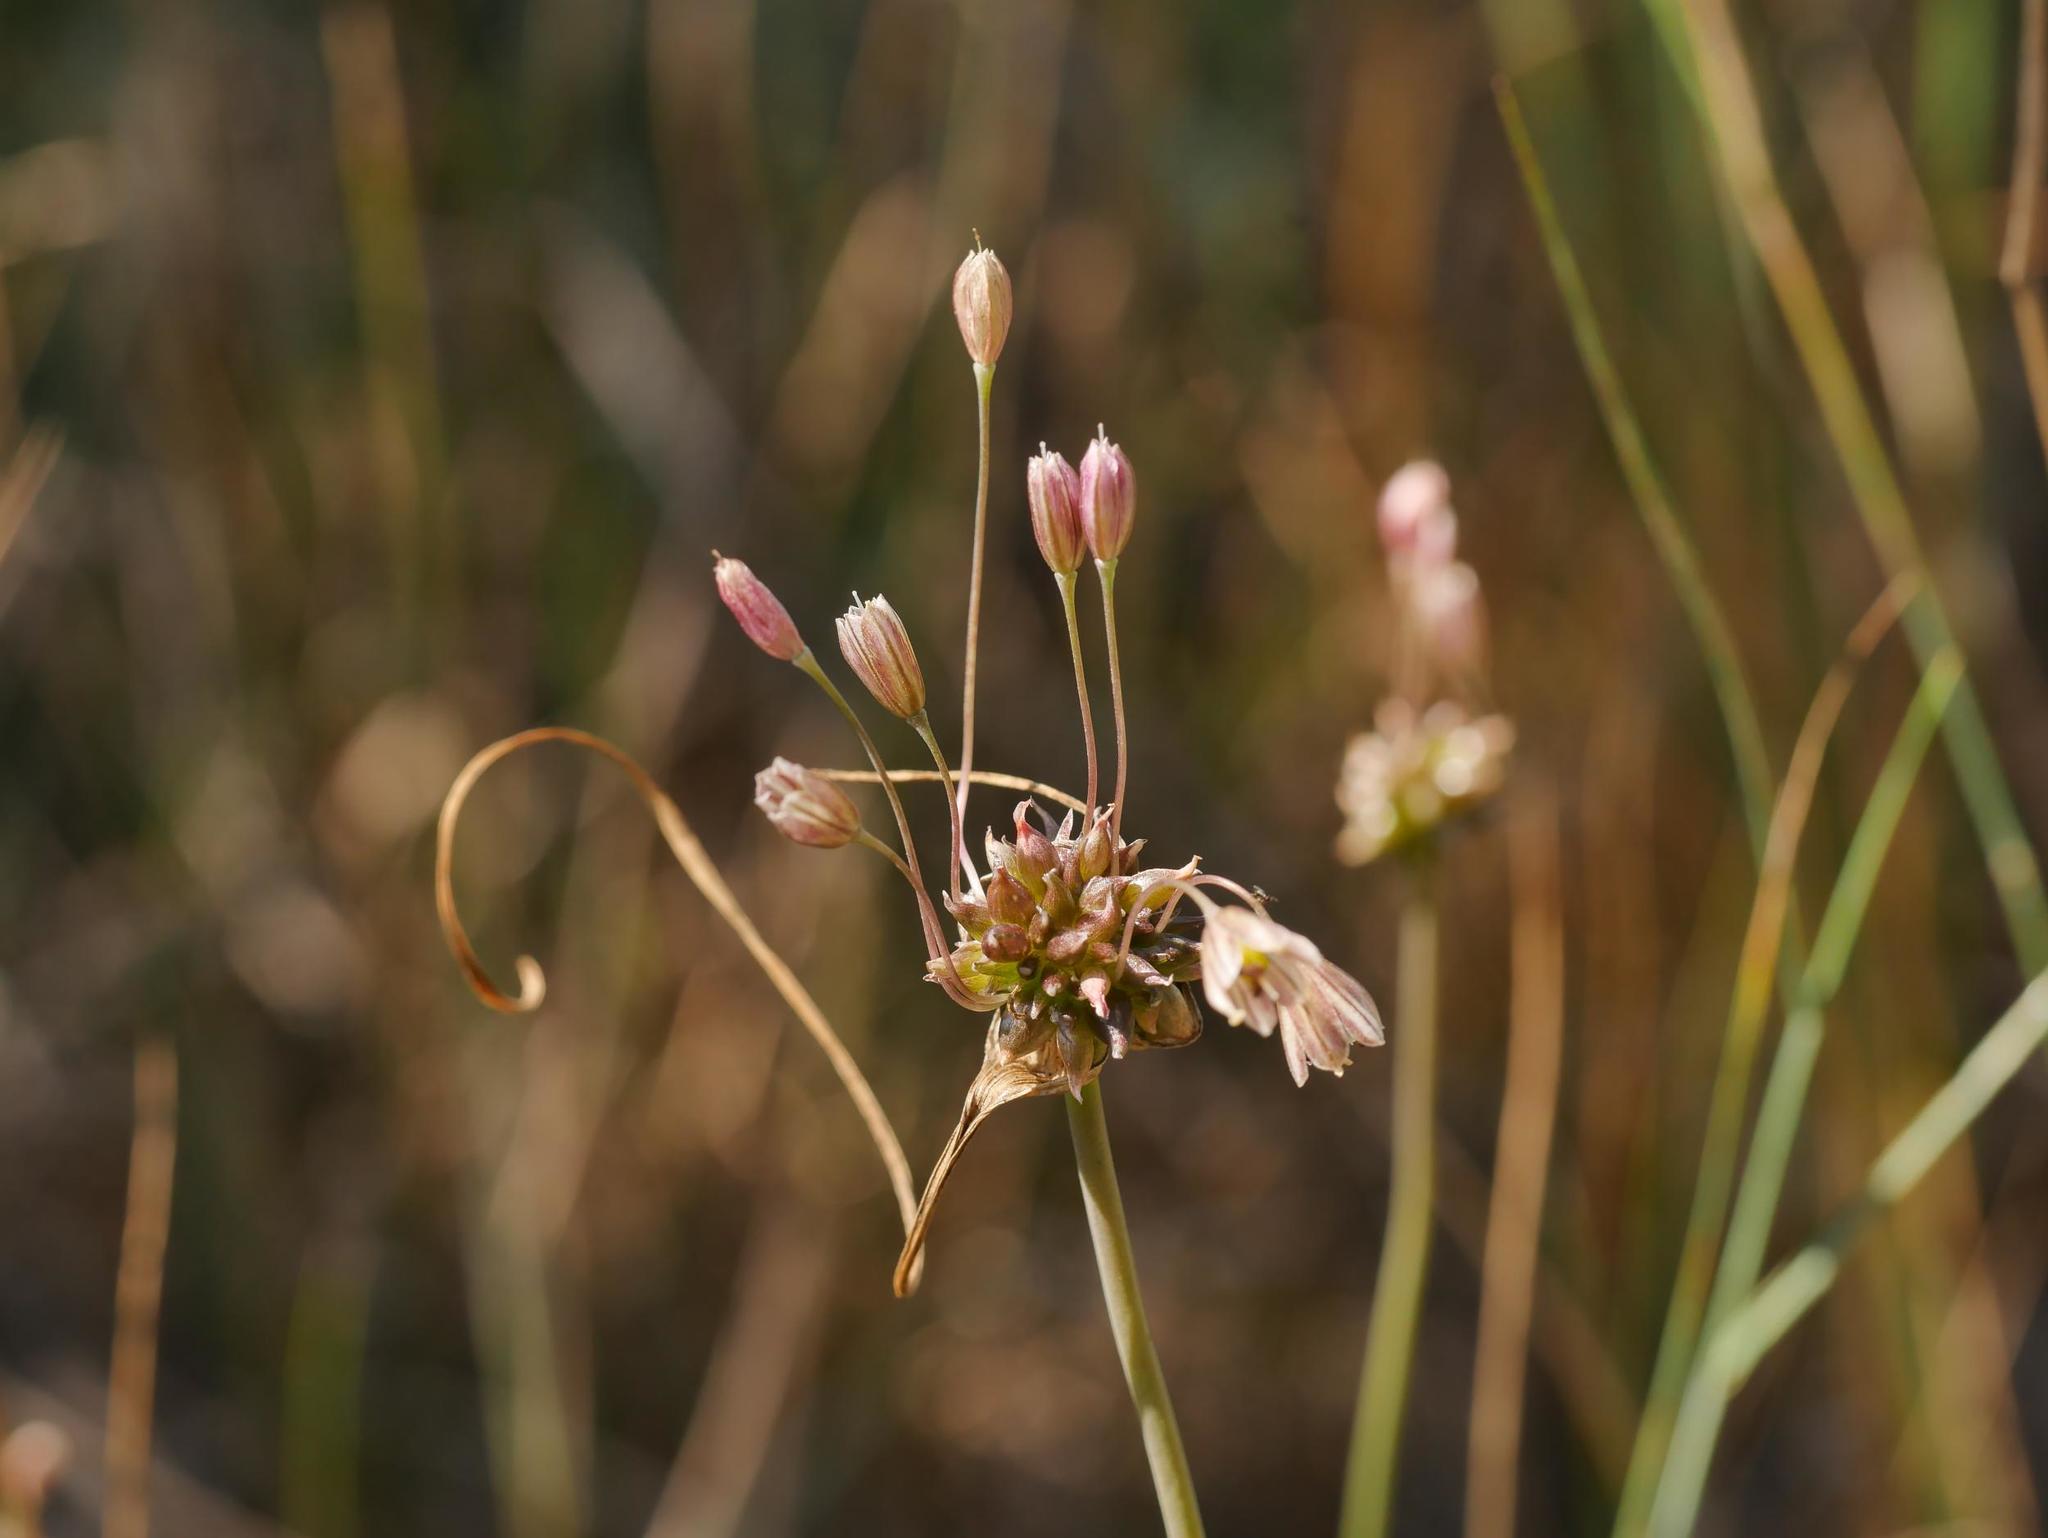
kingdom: Plantae
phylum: Tracheophyta
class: Liliopsida
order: Asparagales
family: Amaryllidaceae
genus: Allium
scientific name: Allium oleraceum
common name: Field garlic
